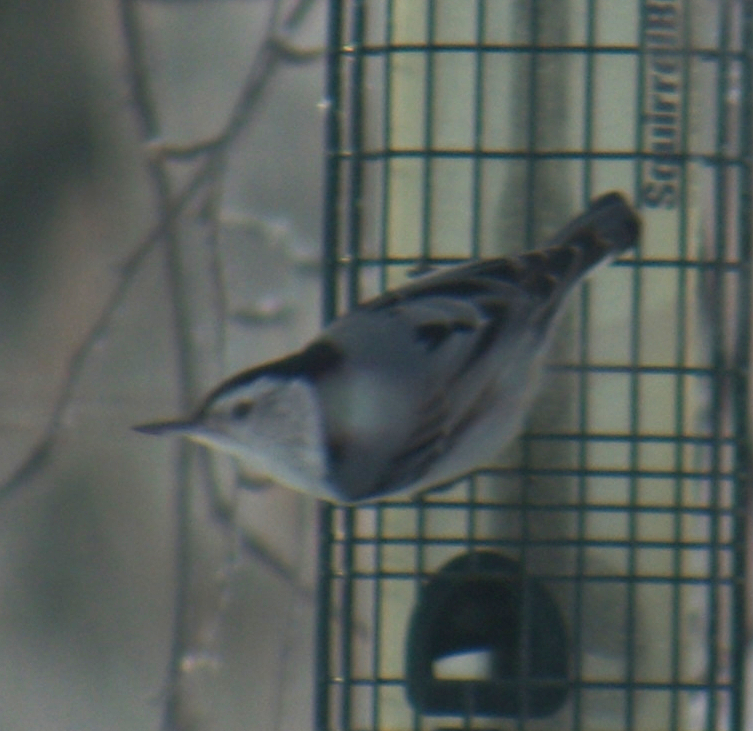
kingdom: Animalia
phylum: Chordata
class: Aves
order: Passeriformes
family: Sittidae
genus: Sitta
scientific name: Sitta carolinensis
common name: White-breasted nuthatch
